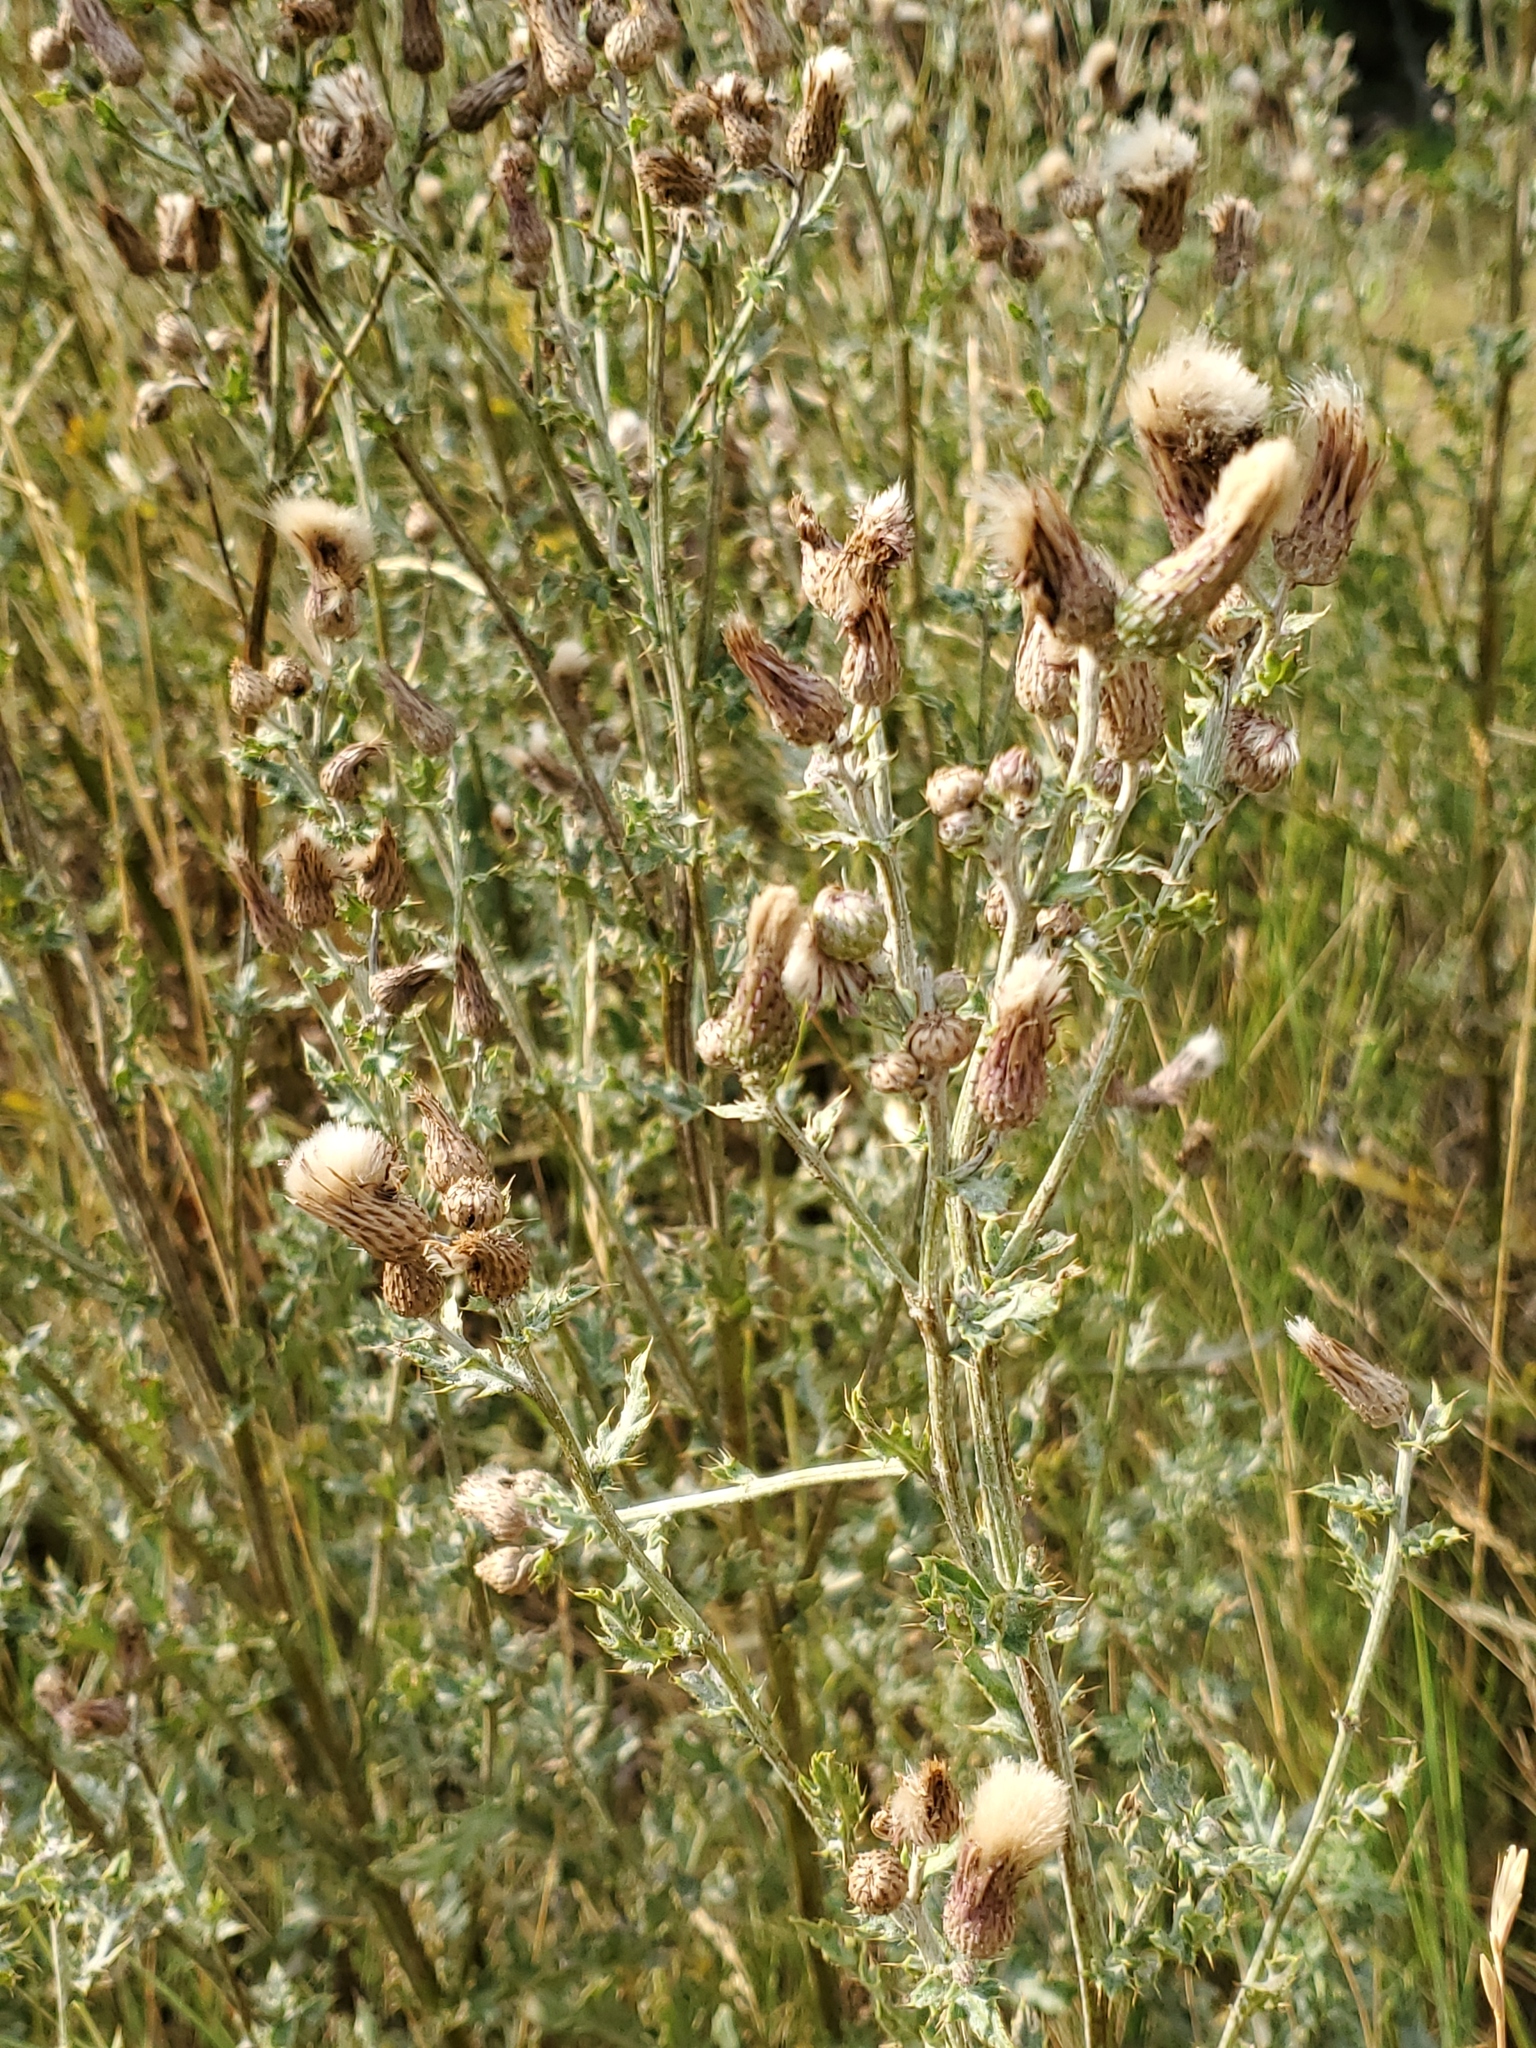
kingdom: Plantae
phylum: Tracheophyta
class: Magnoliopsida
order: Asterales
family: Asteraceae
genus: Cirsium
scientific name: Cirsium arvense
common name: Creeping thistle
